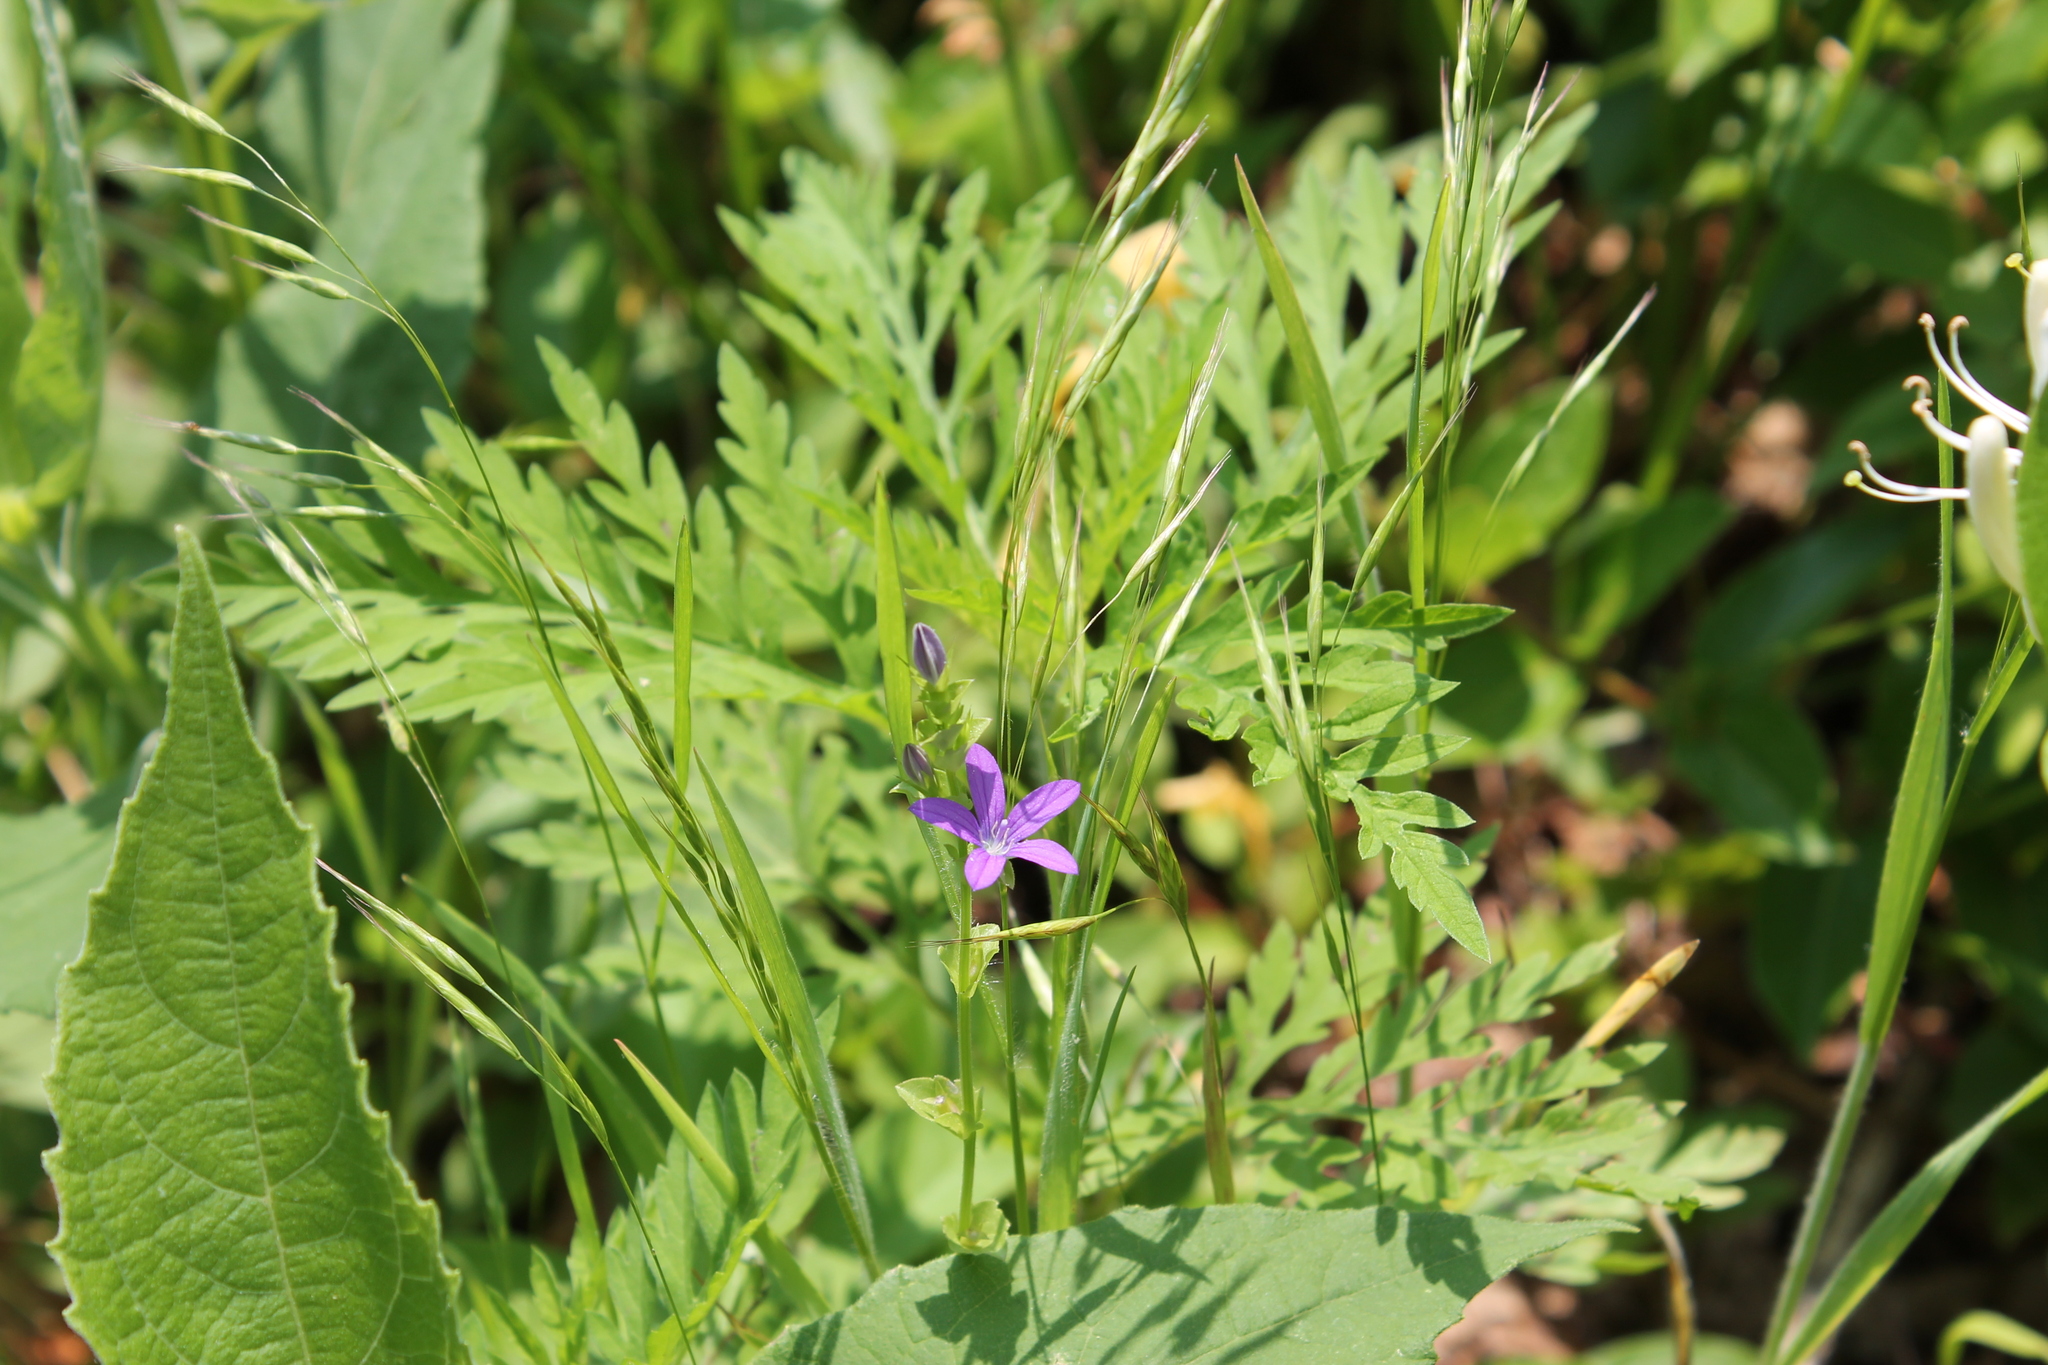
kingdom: Plantae
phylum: Tracheophyta
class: Magnoliopsida
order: Asterales
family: Campanulaceae
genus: Triodanis
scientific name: Triodanis perfoliata
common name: Clasping venus' looking-glass
